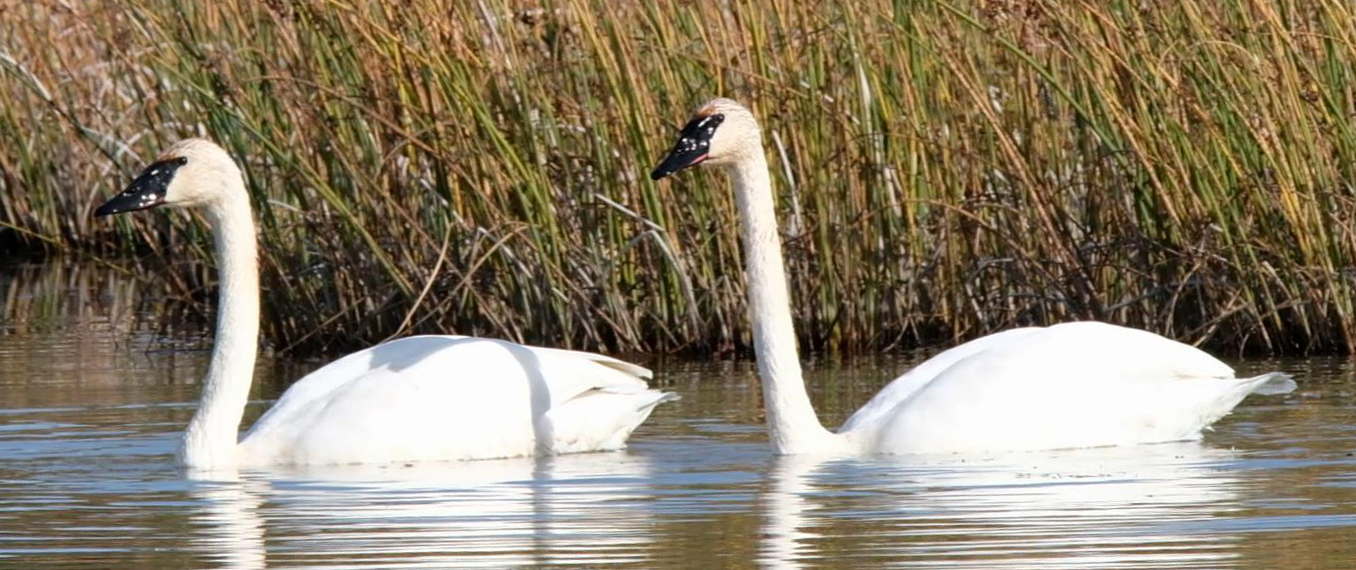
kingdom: Animalia
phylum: Chordata
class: Aves
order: Anseriformes
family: Anatidae
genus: Cygnus
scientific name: Cygnus buccinator
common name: Trumpeter swan
